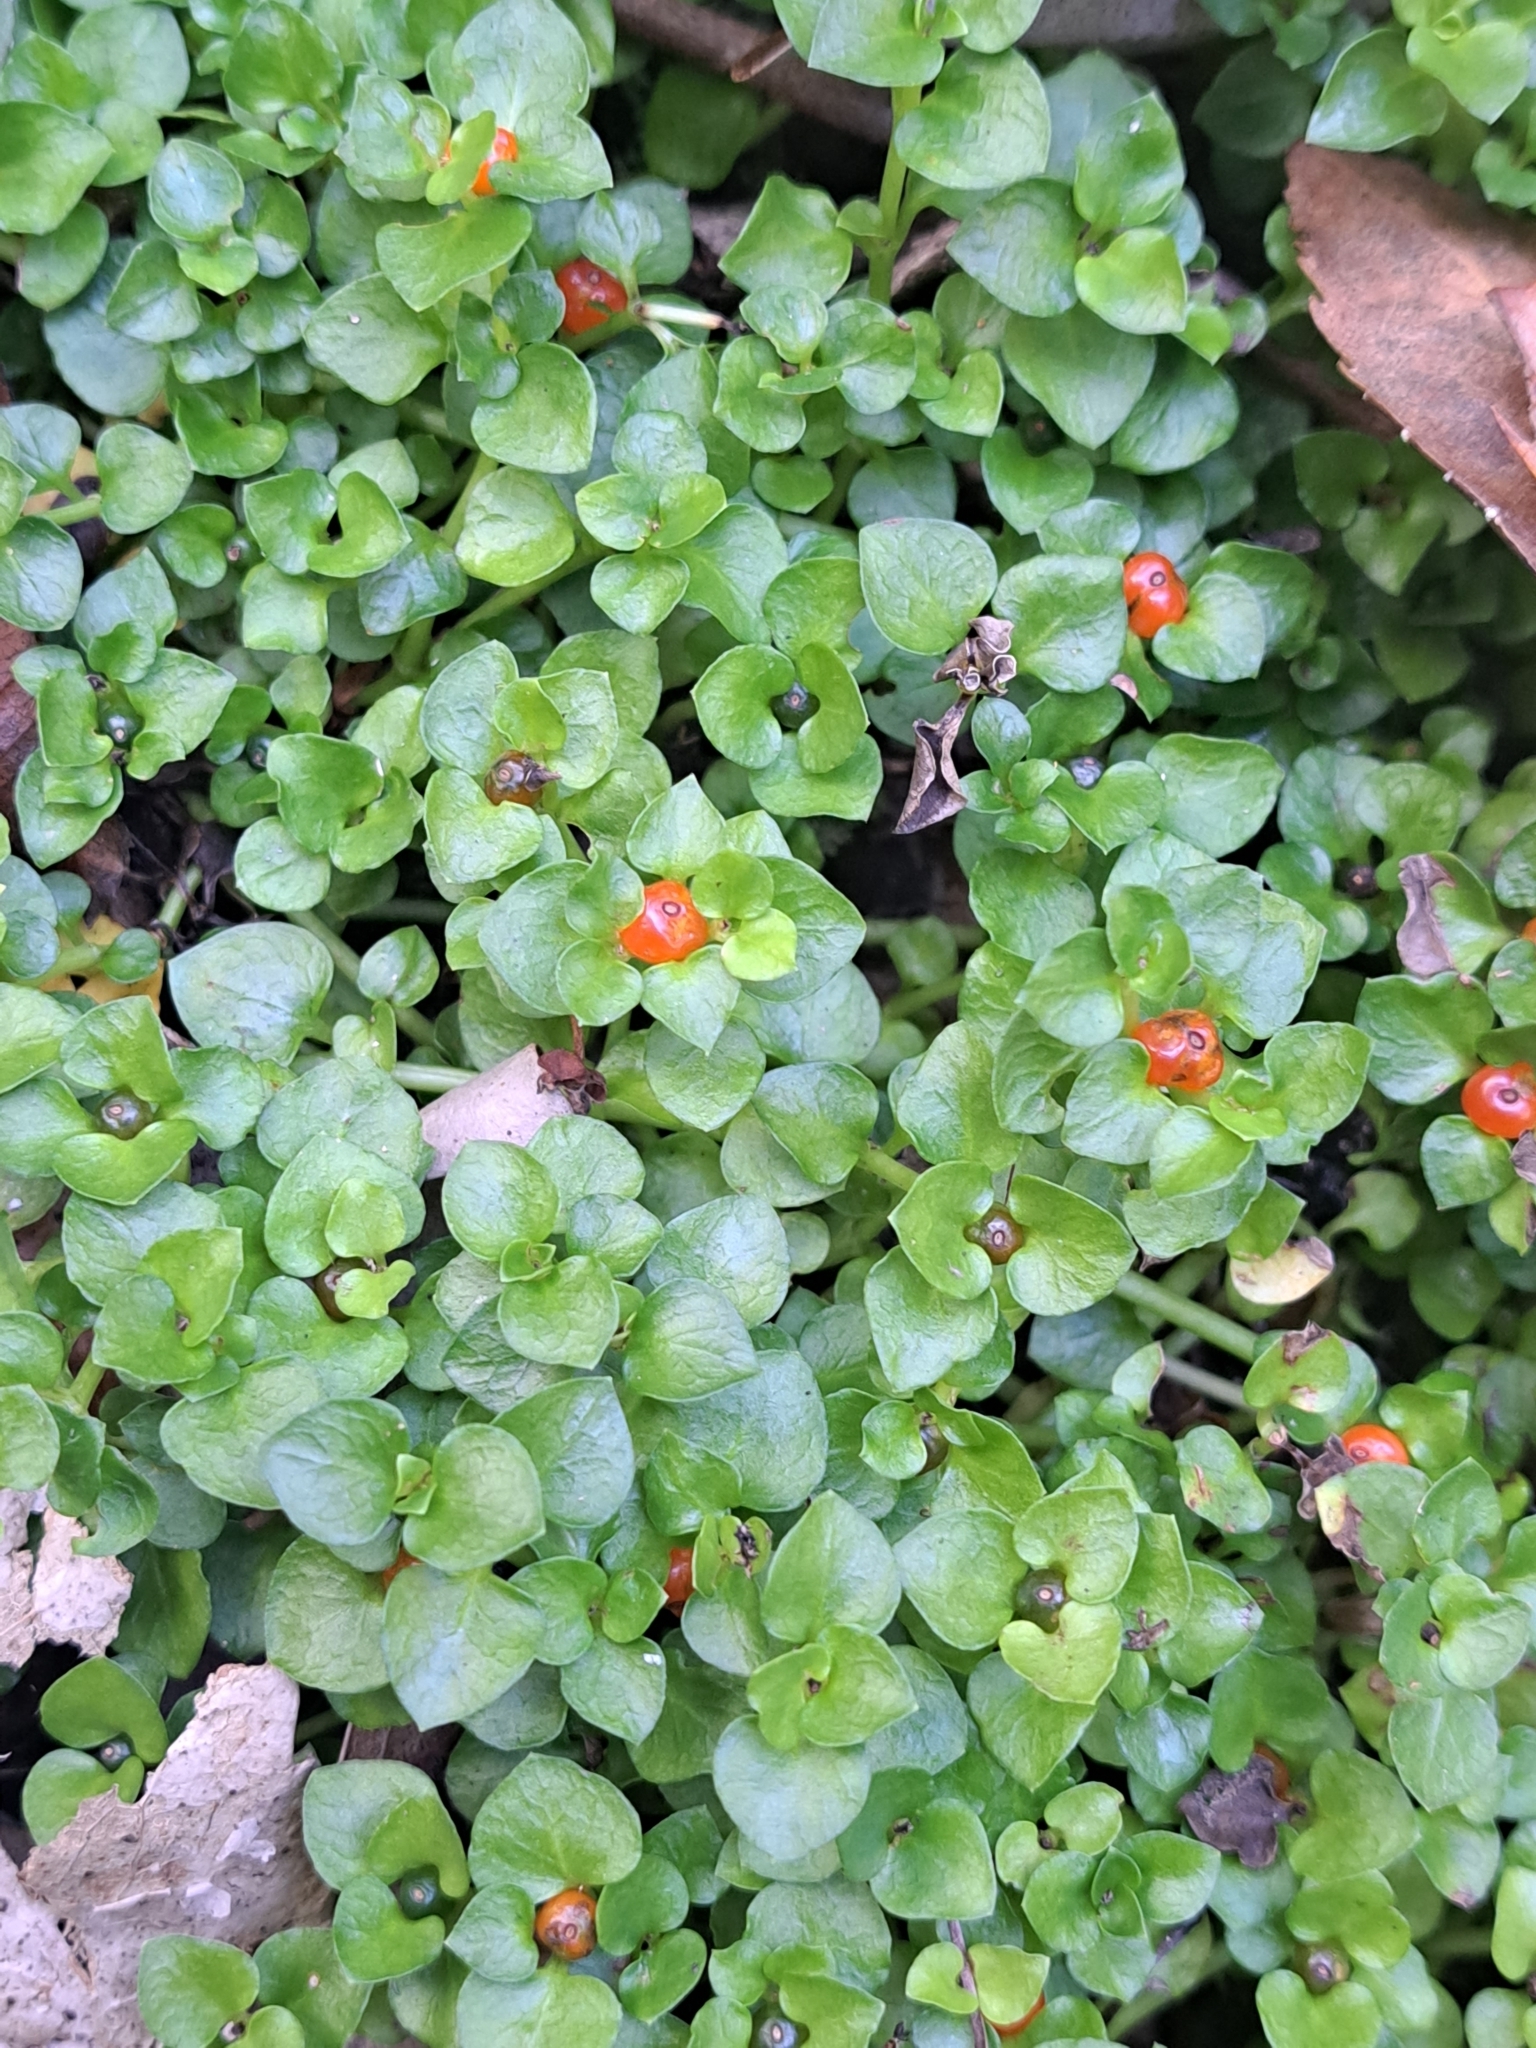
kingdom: Plantae
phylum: Tracheophyta
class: Magnoliopsida
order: Gentianales
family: Rubiaceae
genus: Nertera
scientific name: Nertera granadensis
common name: Beadplant
